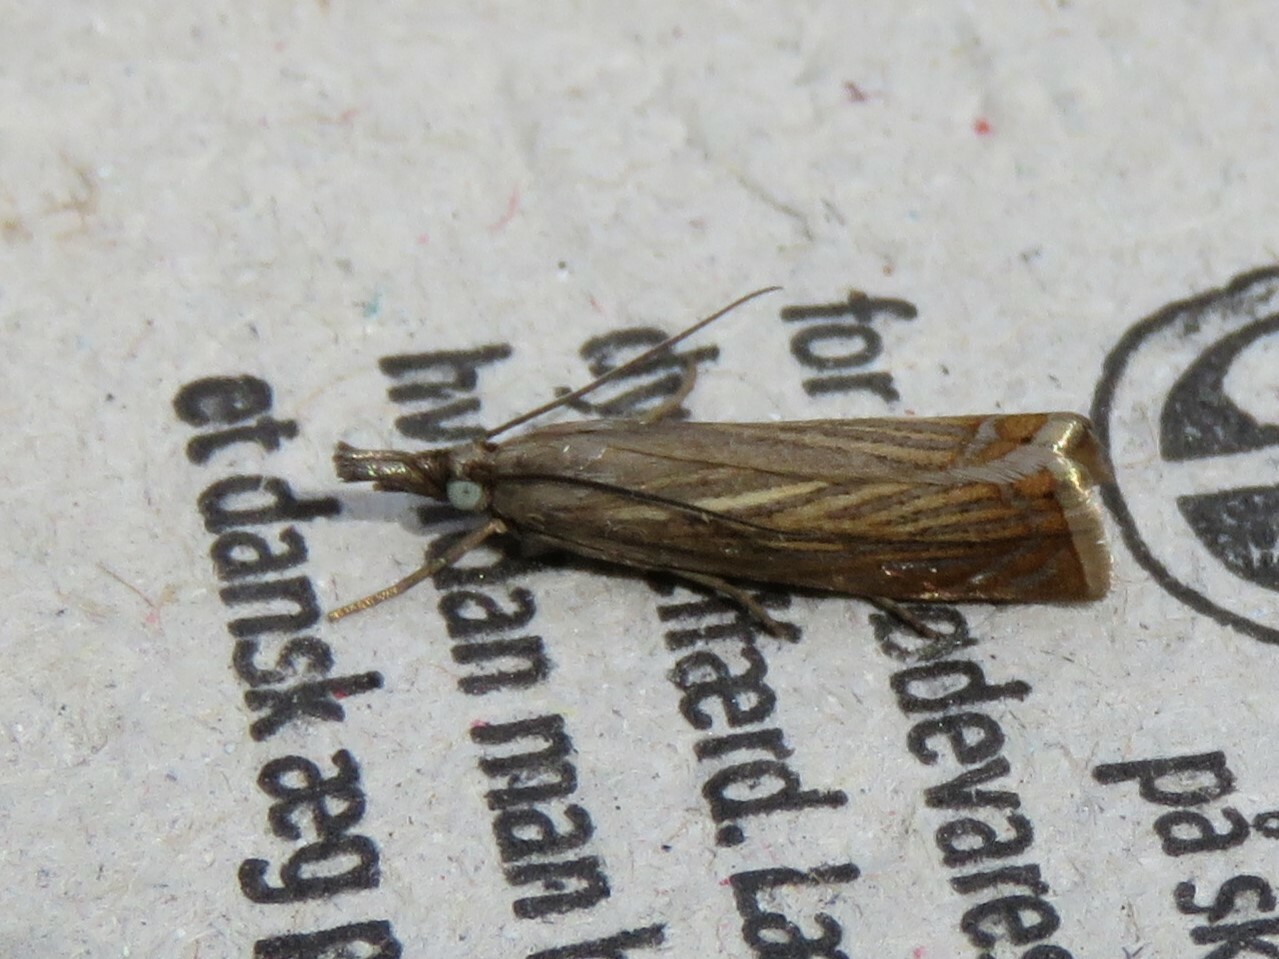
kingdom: Animalia
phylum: Arthropoda
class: Insecta
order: Lepidoptera
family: Crambidae
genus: Chrysoteuchia
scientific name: Chrysoteuchia culmella
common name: Garden grass-veneer
